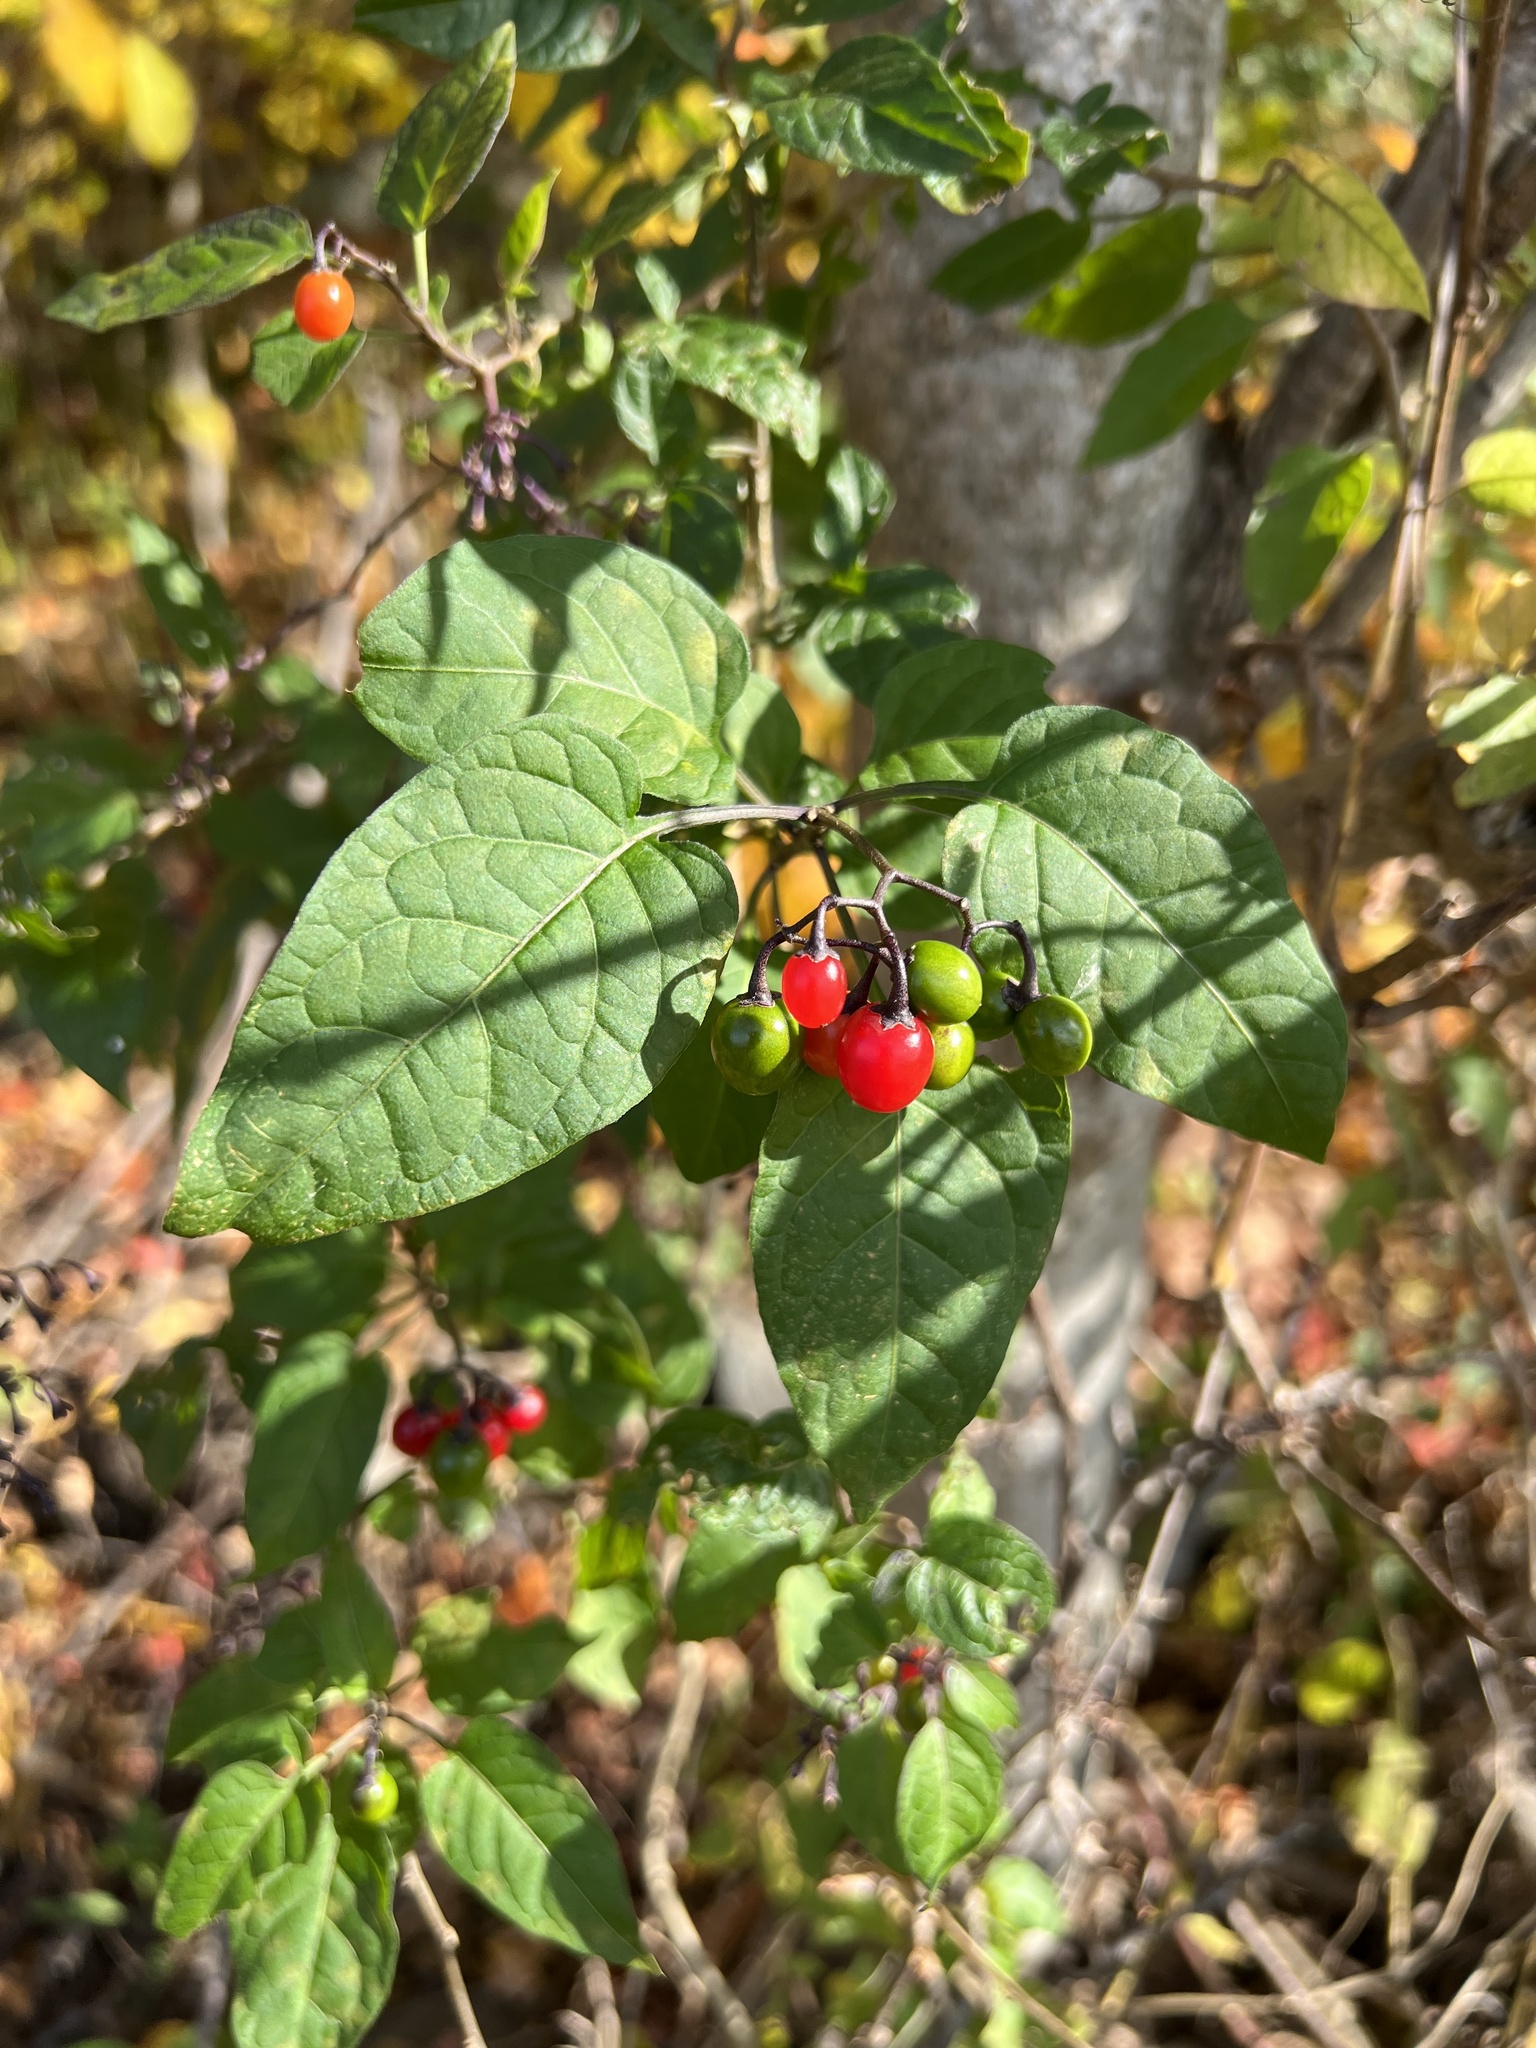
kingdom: Plantae
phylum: Tracheophyta
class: Magnoliopsida
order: Solanales
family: Solanaceae
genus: Solanum
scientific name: Solanum dulcamara
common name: Climbing nightshade
